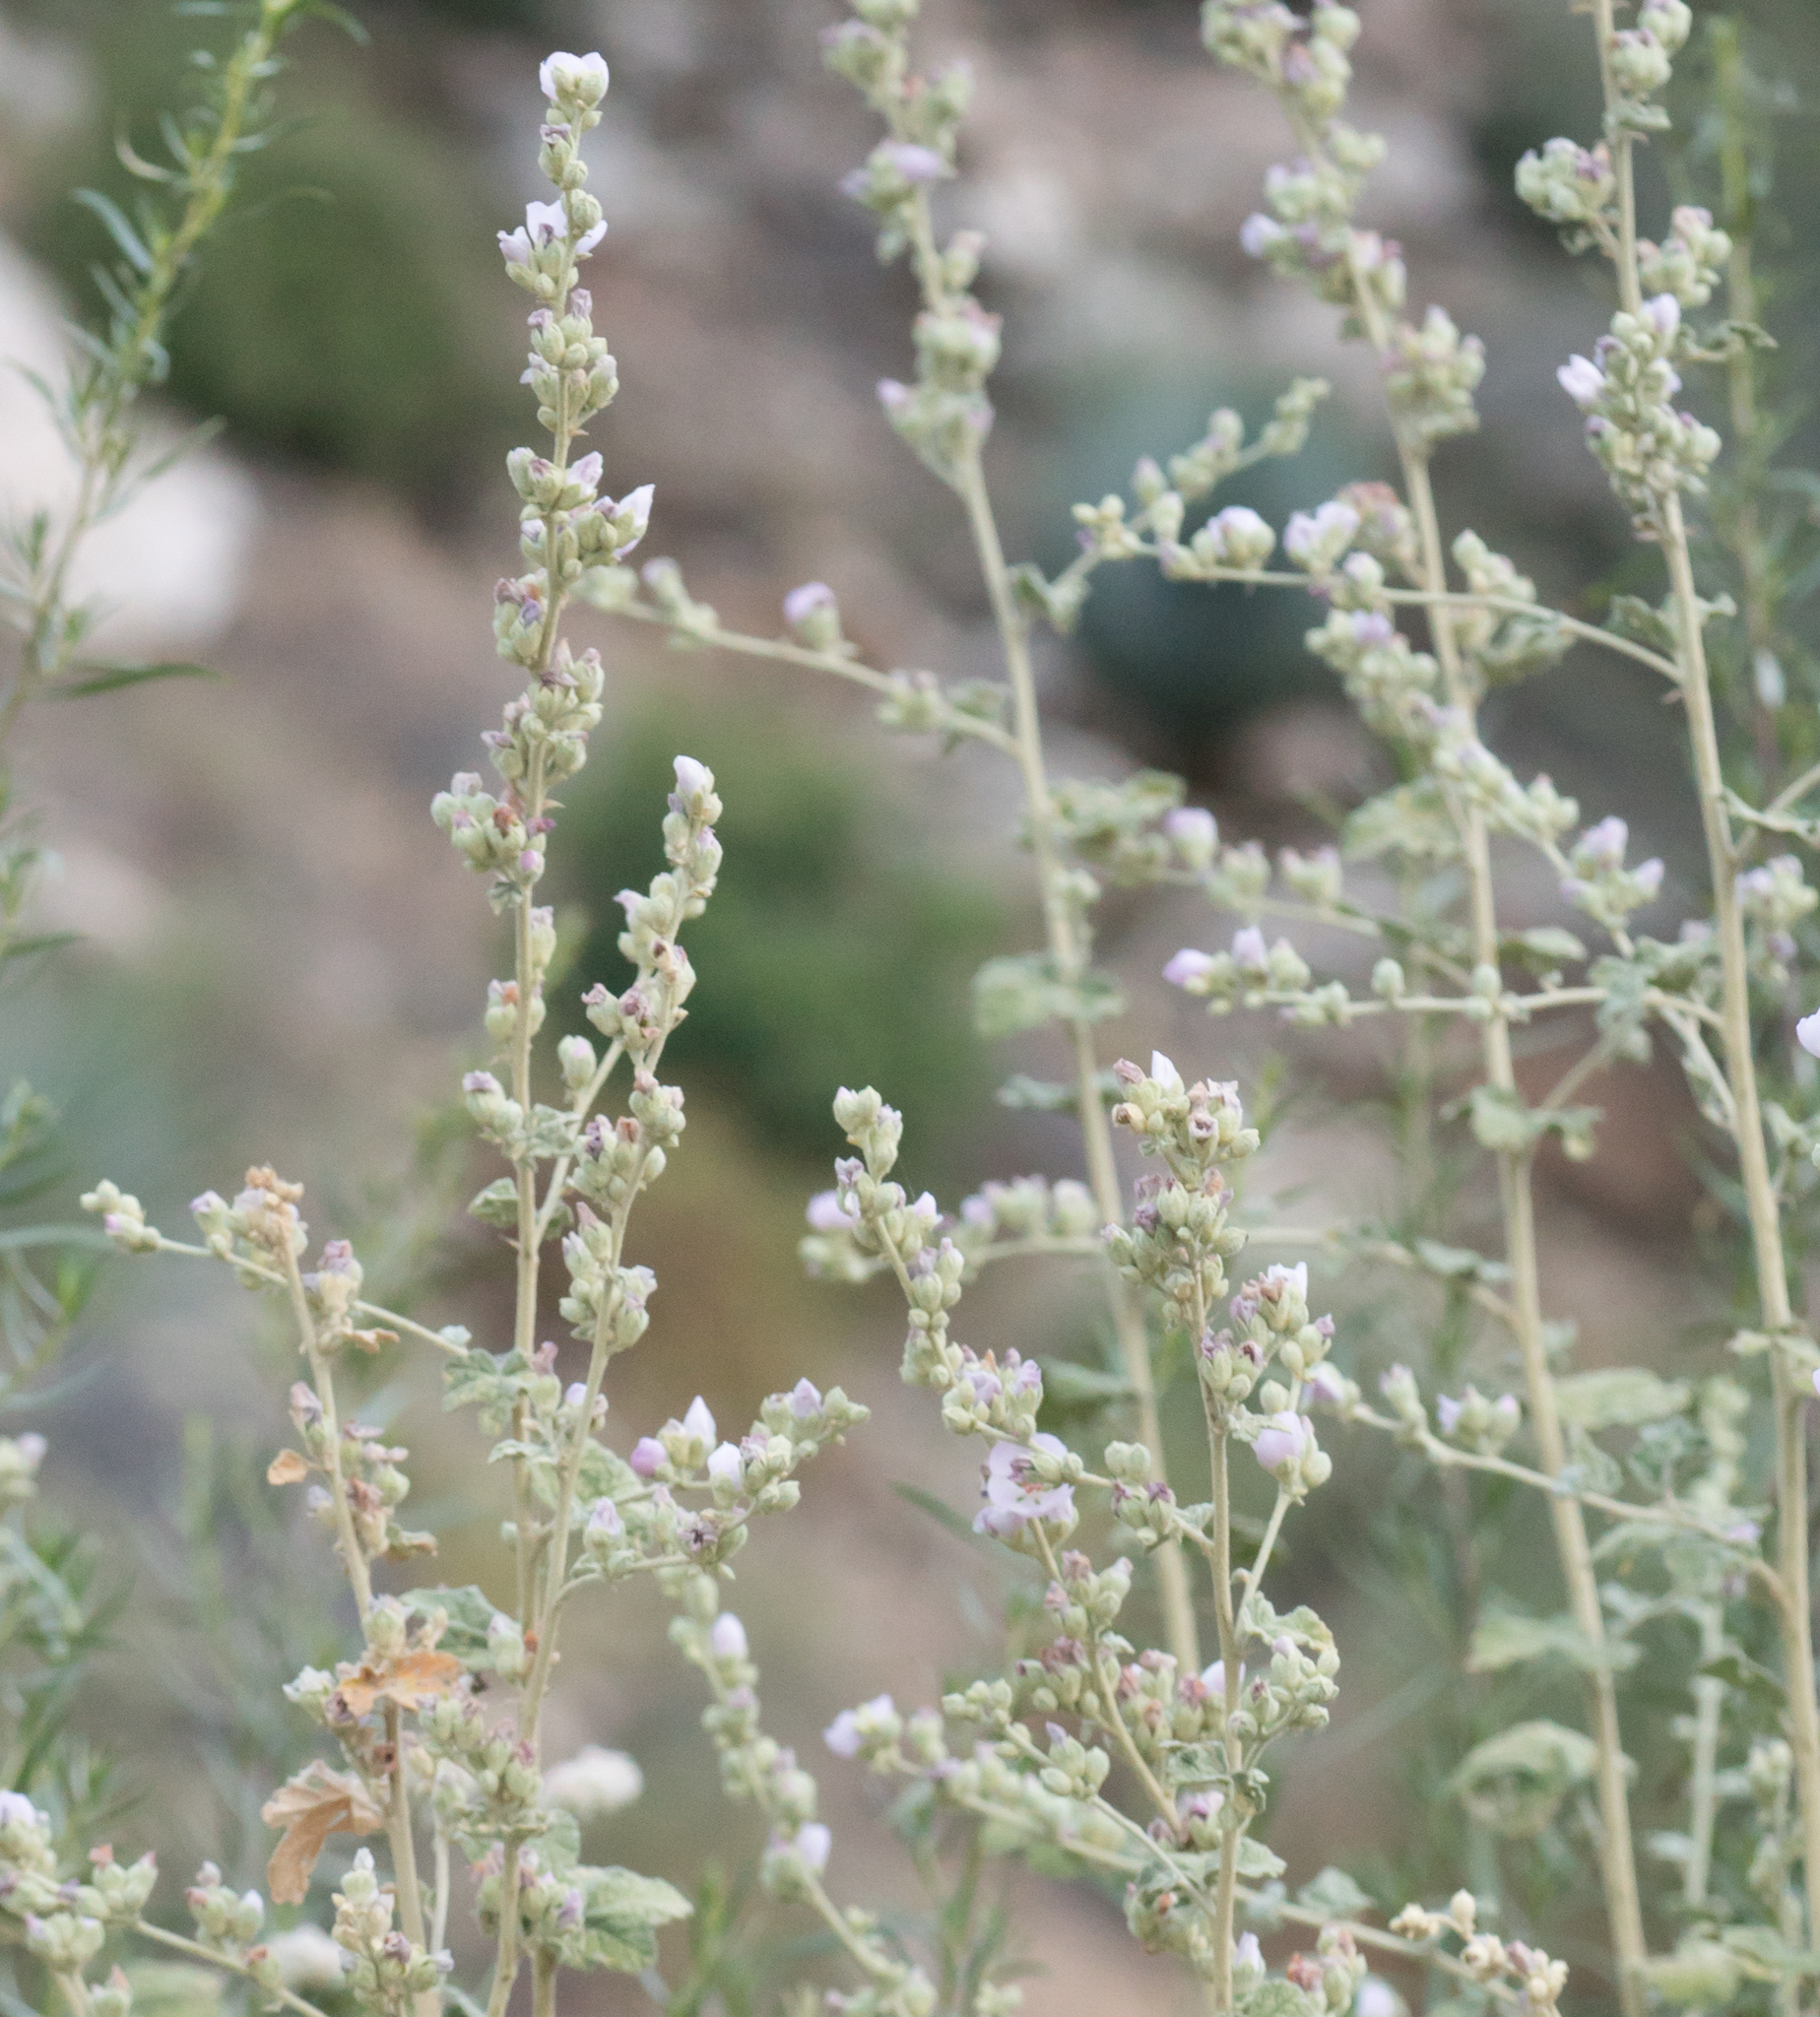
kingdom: Plantae
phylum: Tracheophyta
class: Magnoliopsida
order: Malvales
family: Malvaceae
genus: Malacothamnus
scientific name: Malacothamnus fasciculatus
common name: Sant cruz island bush-mallow
